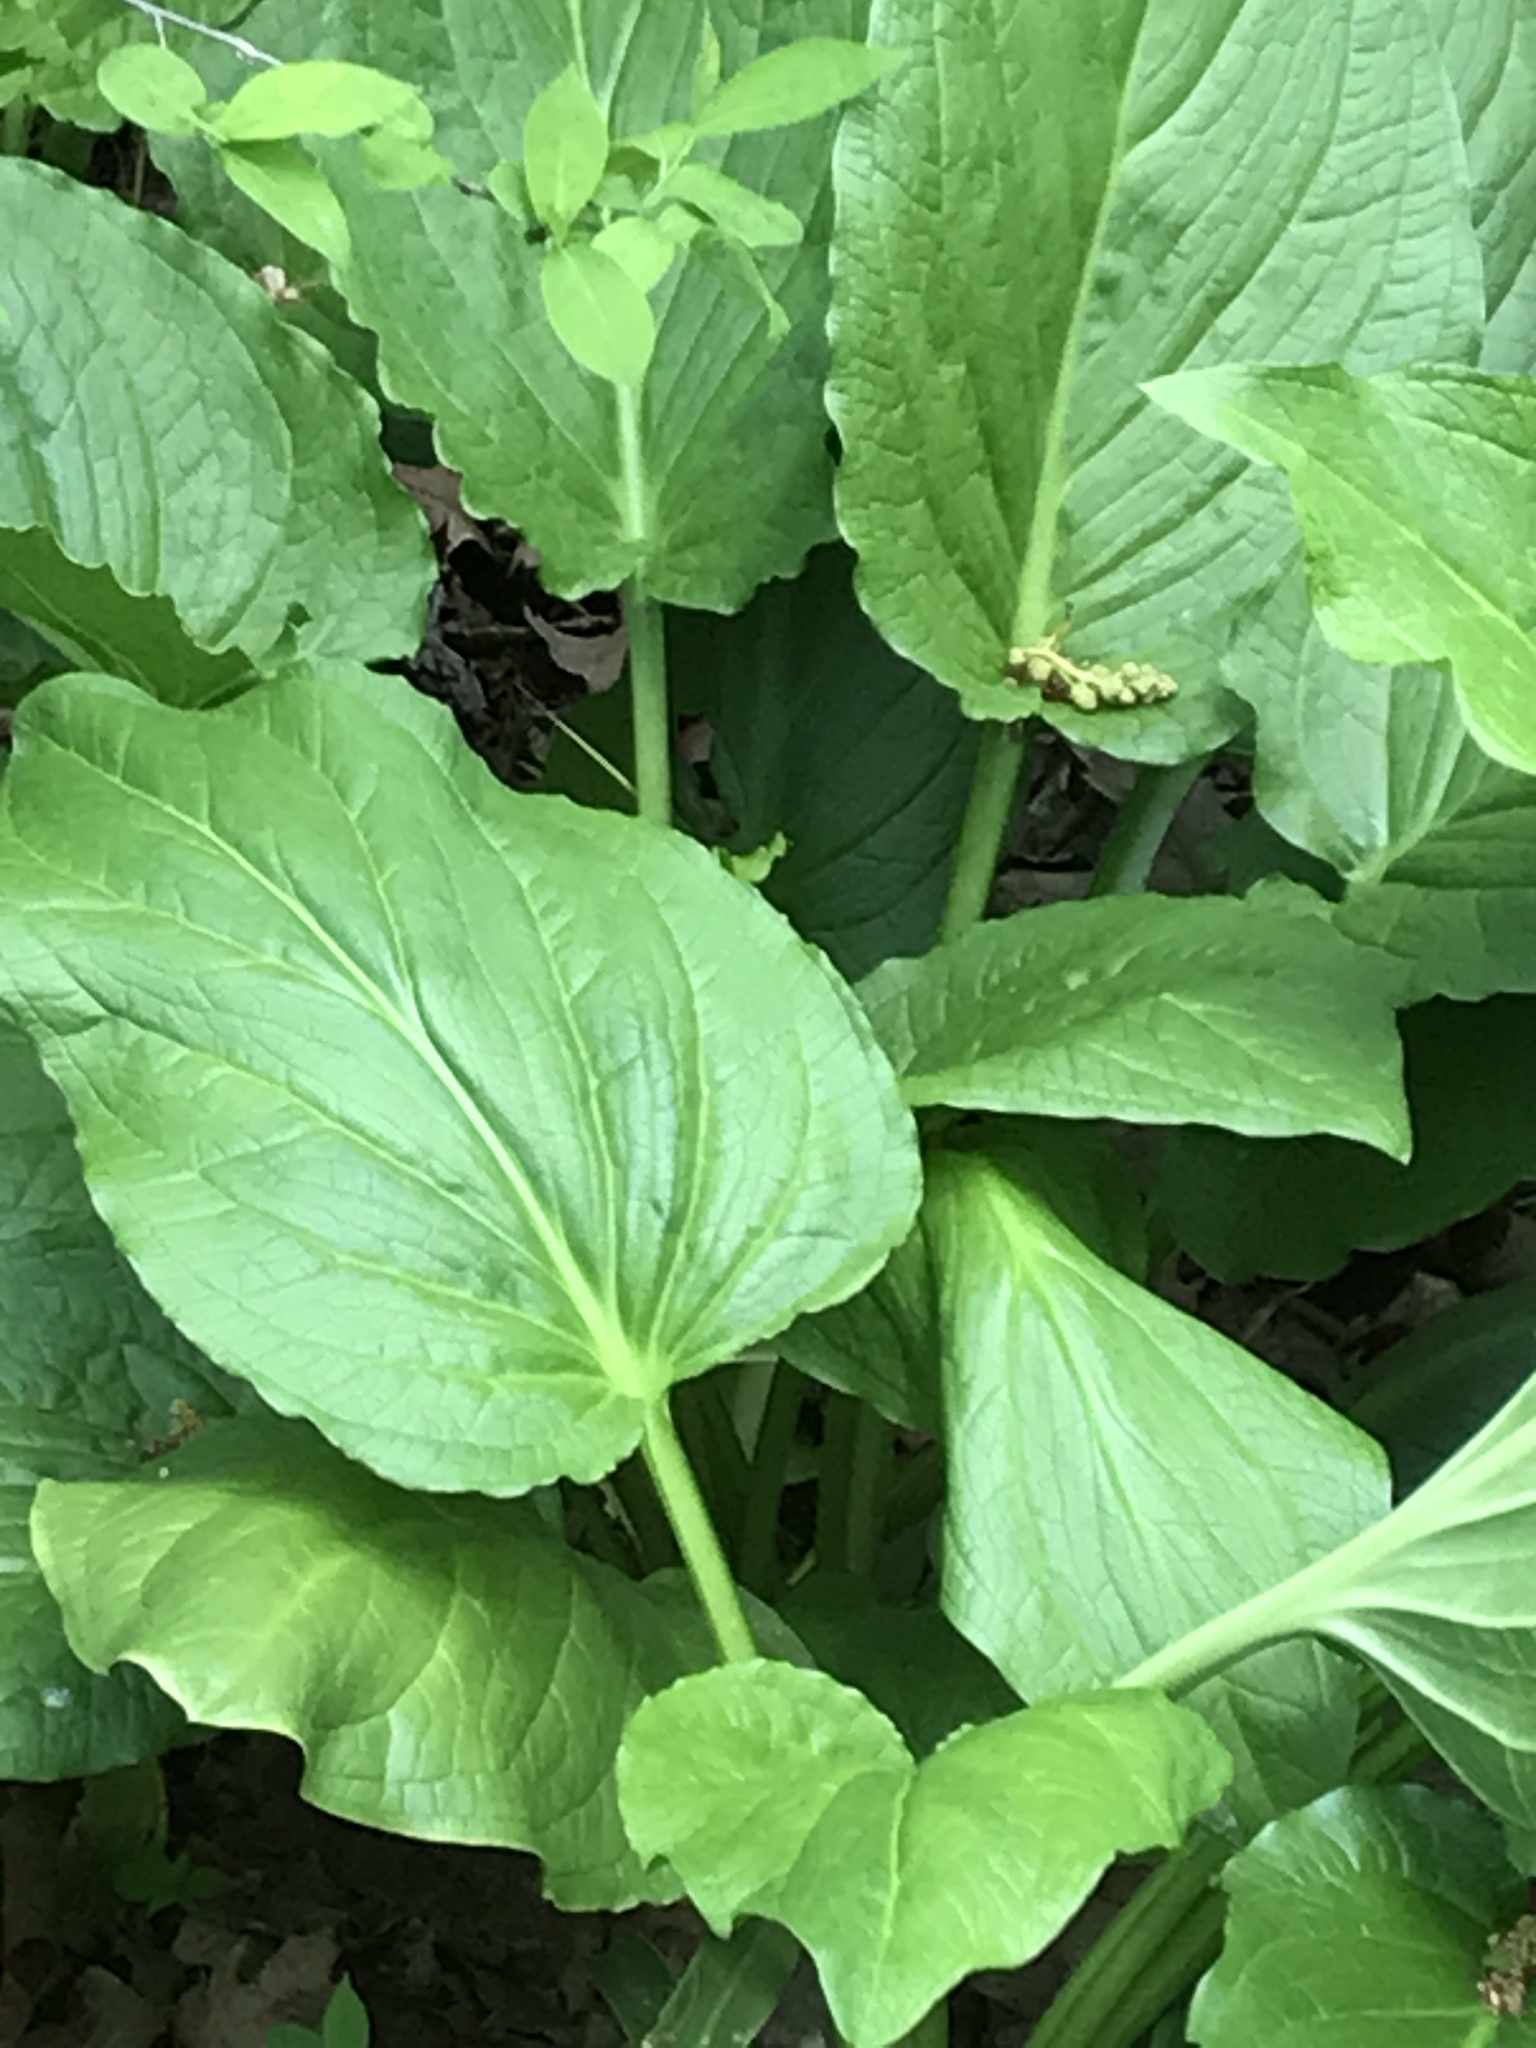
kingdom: Plantae
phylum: Tracheophyta
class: Liliopsida
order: Alismatales
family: Araceae
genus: Symplocarpus
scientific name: Symplocarpus foetidus
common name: Eastern skunk cabbage
